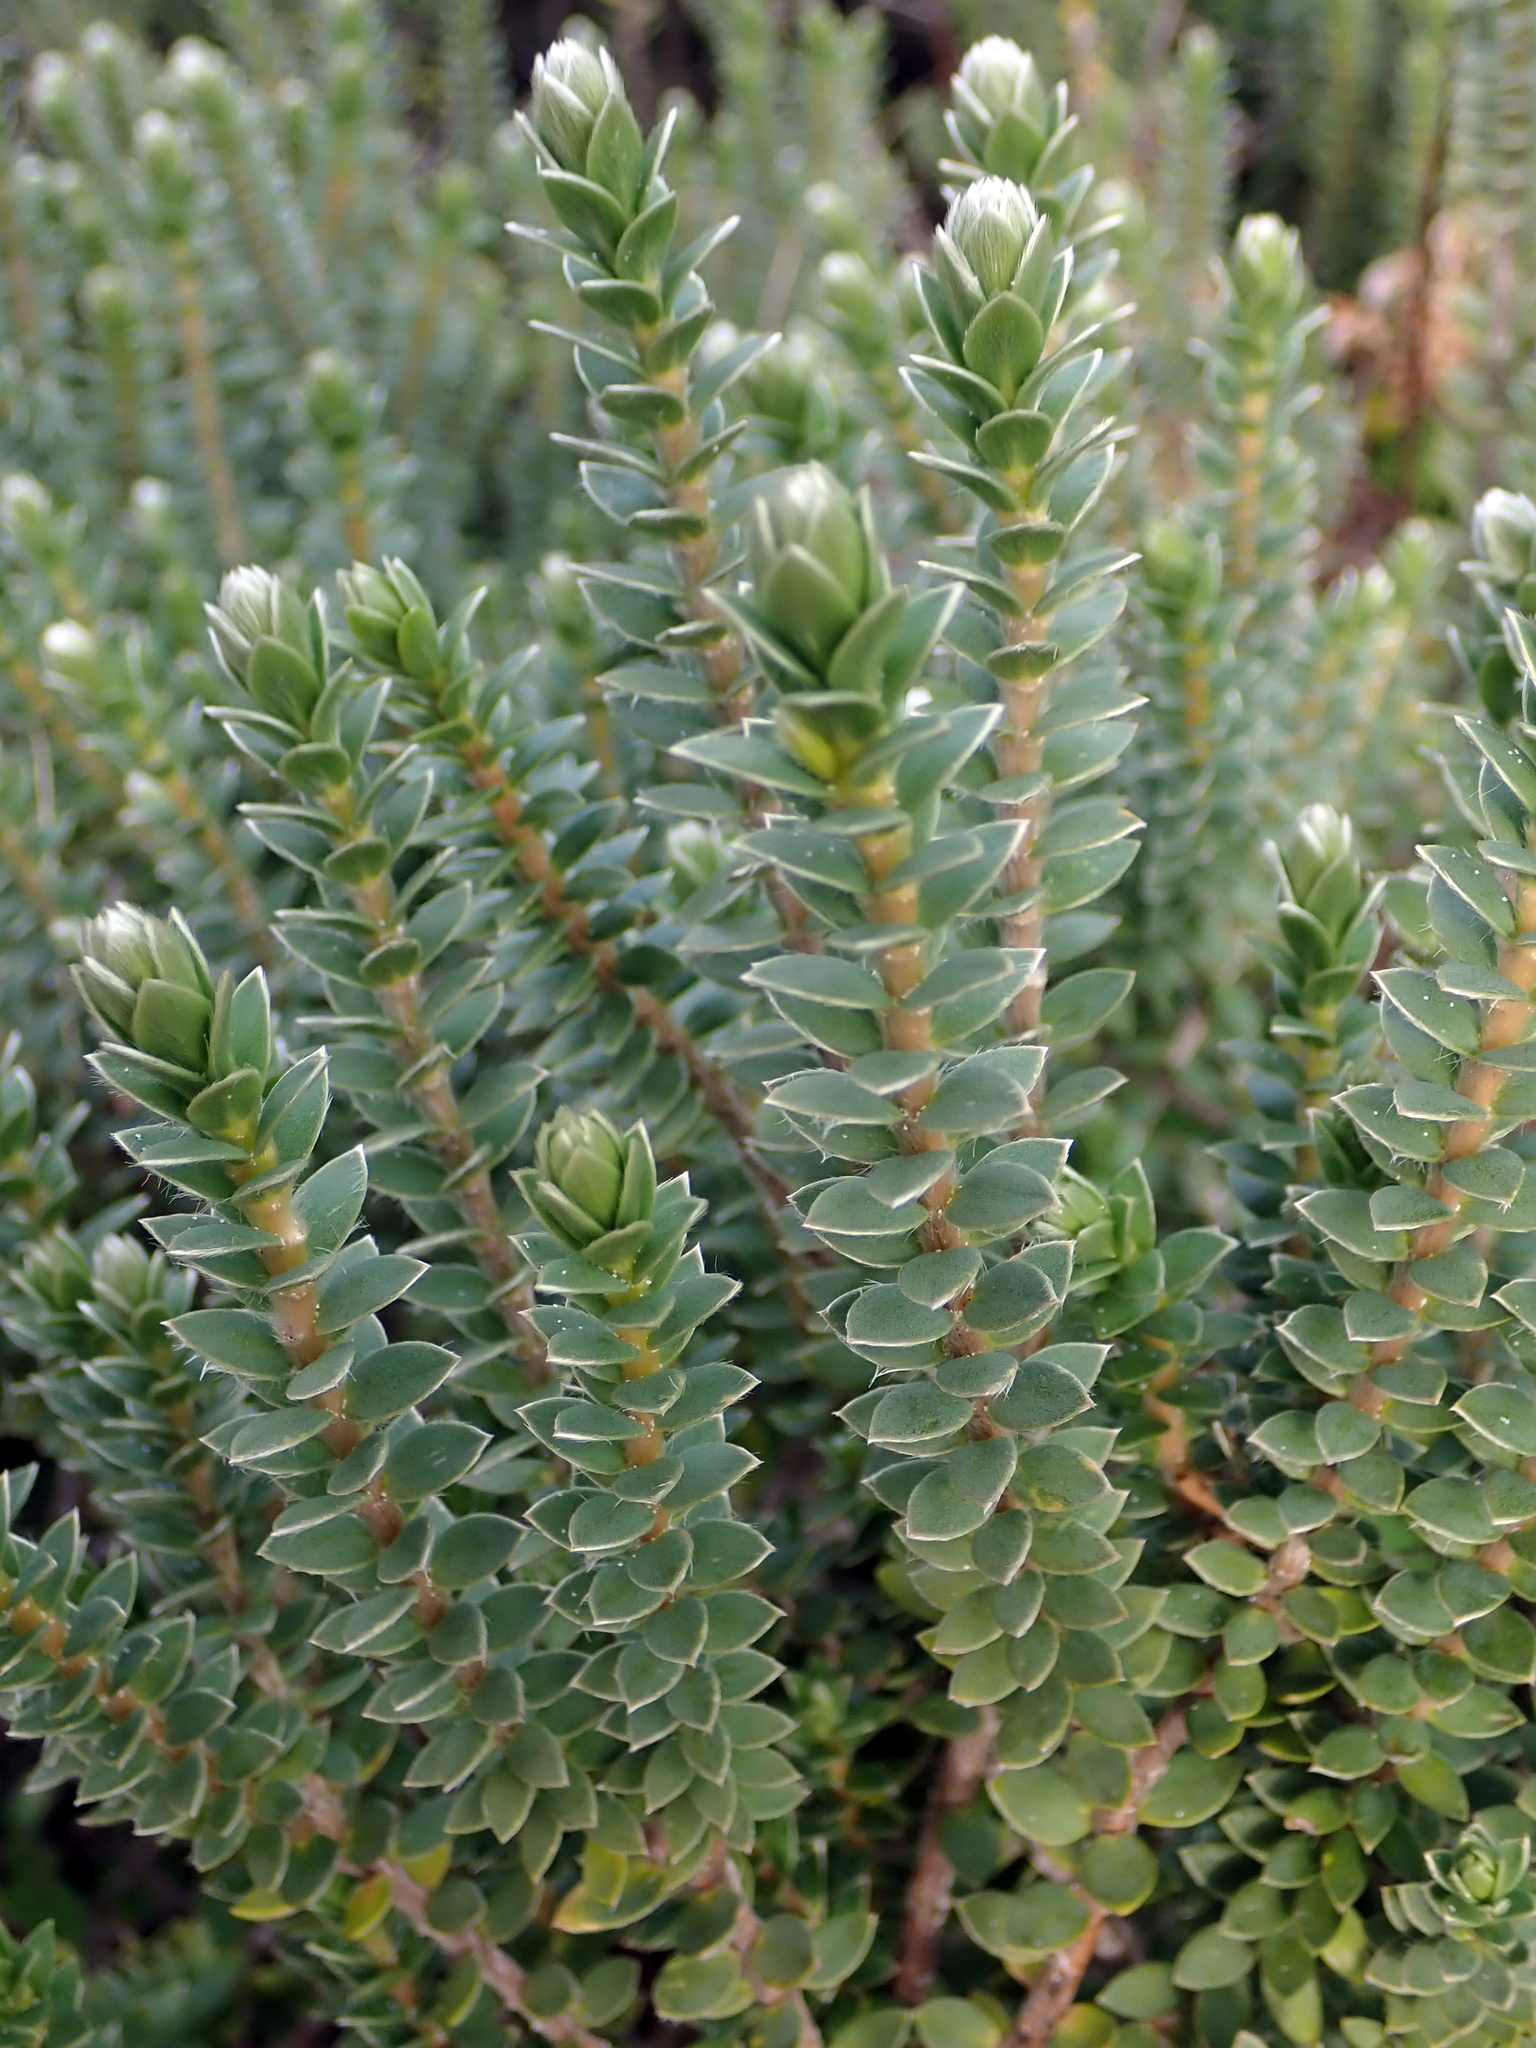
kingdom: Plantae
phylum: Tracheophyta
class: Magnoliopsida
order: Malvales
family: Thymelaeaceae
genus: Pimelea
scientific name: Pimelea villosa
